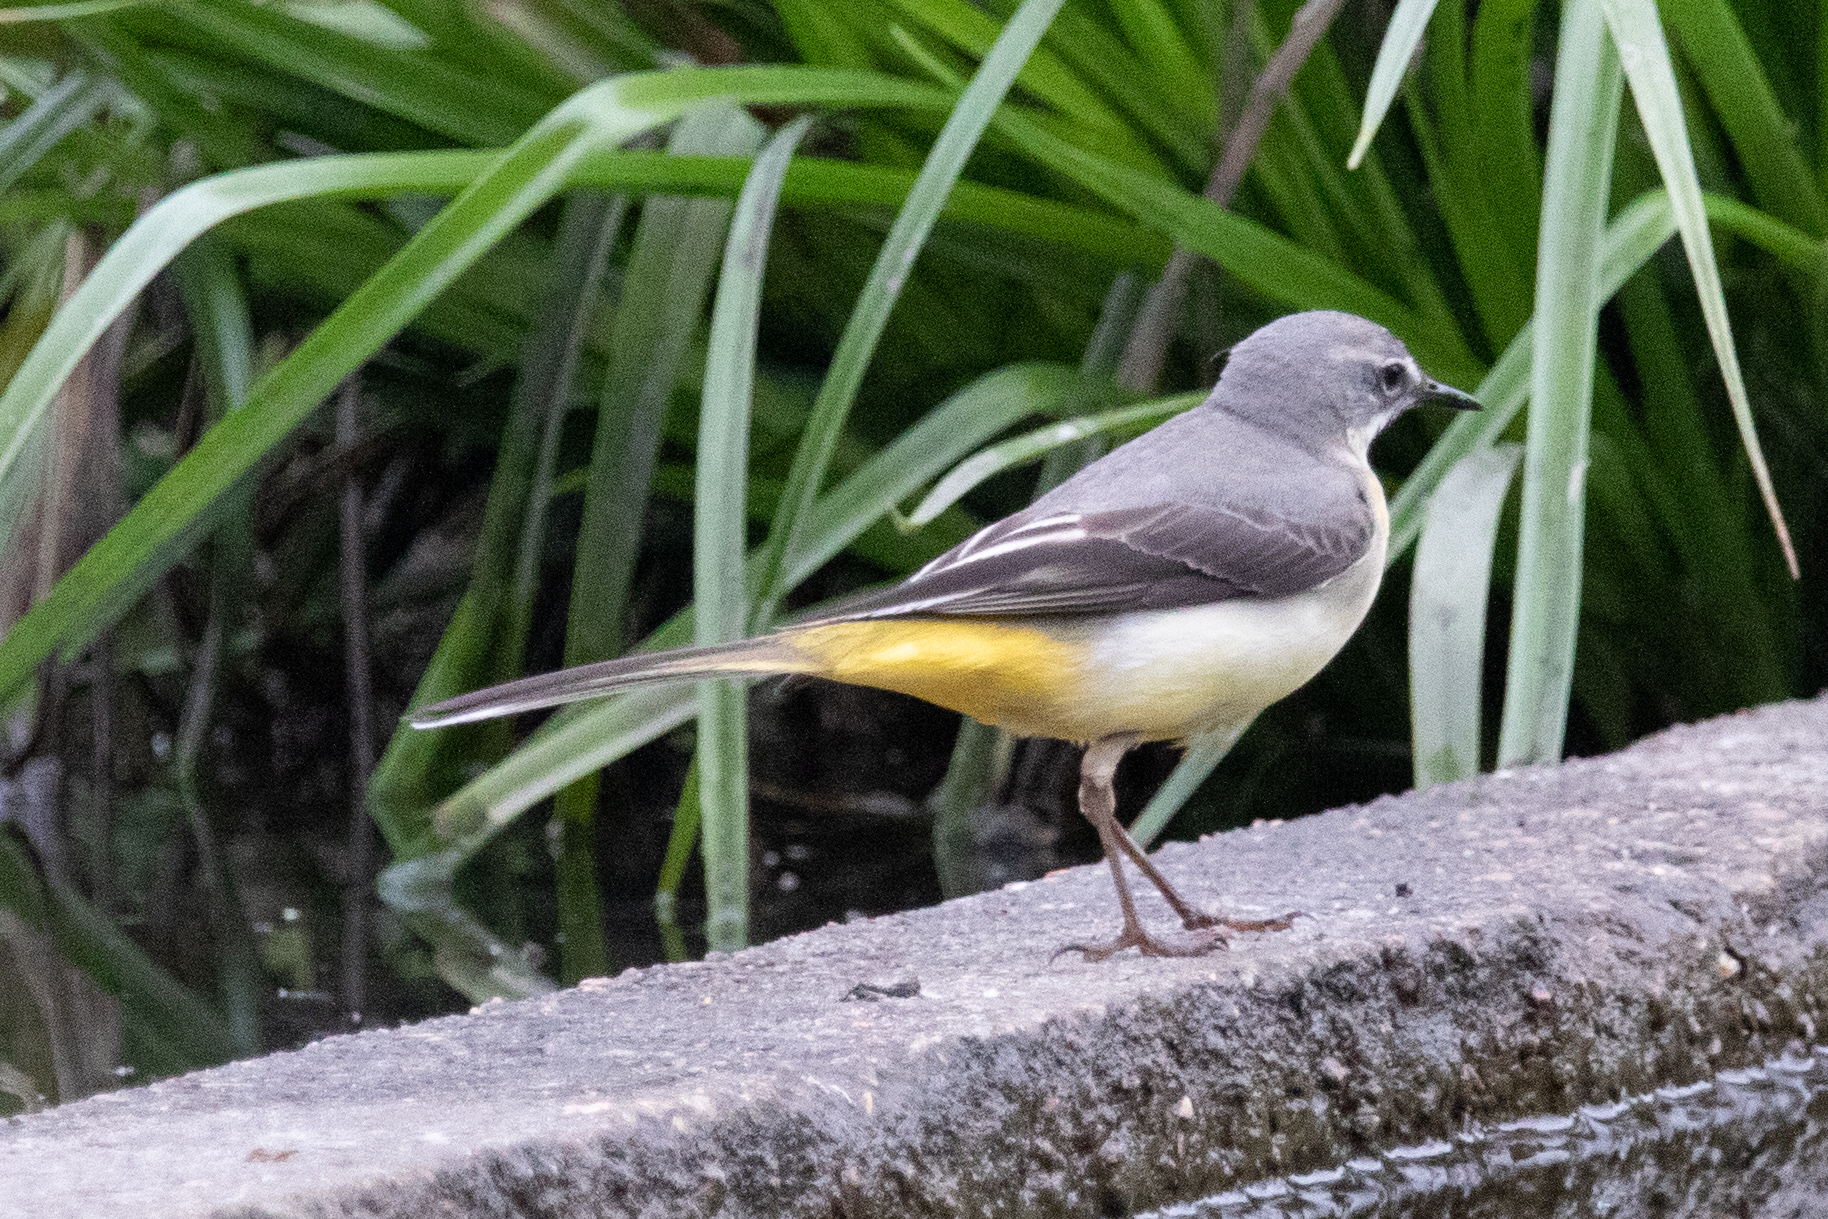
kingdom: Animalia
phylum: Chordata
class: Aves
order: Passeriformes
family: Motacillidae
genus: Motacilla
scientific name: Motacilla cinerea
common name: Grey wagtail
